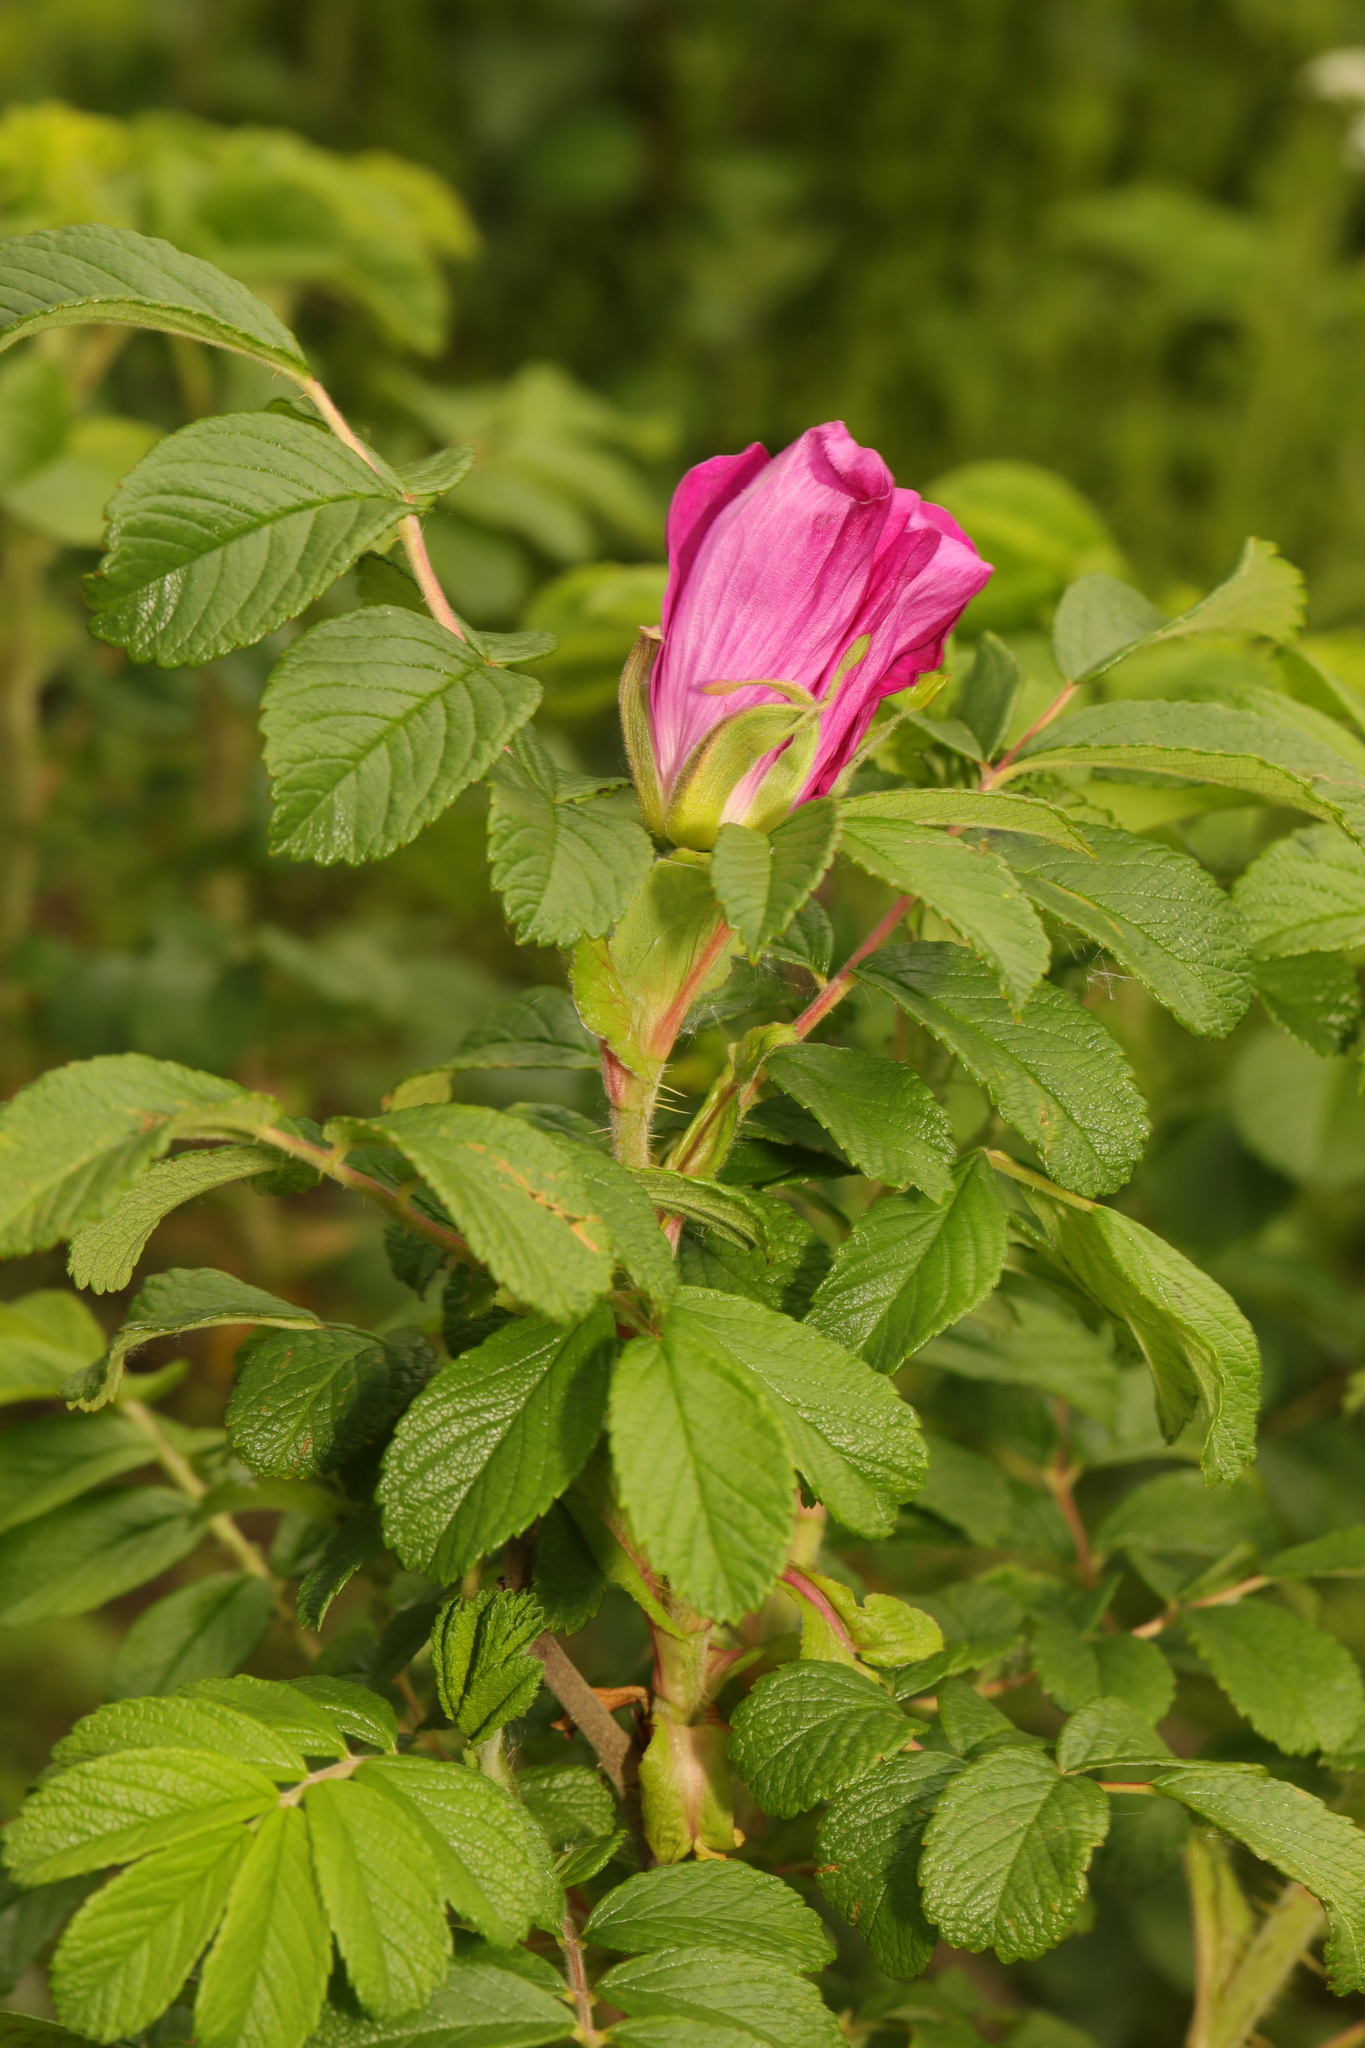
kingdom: Plantae
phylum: Tracheophyta
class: Magnoliopsida
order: Rosales
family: Rosaceae
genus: Rosa
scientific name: Rosa rugosa
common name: Japanese rose
